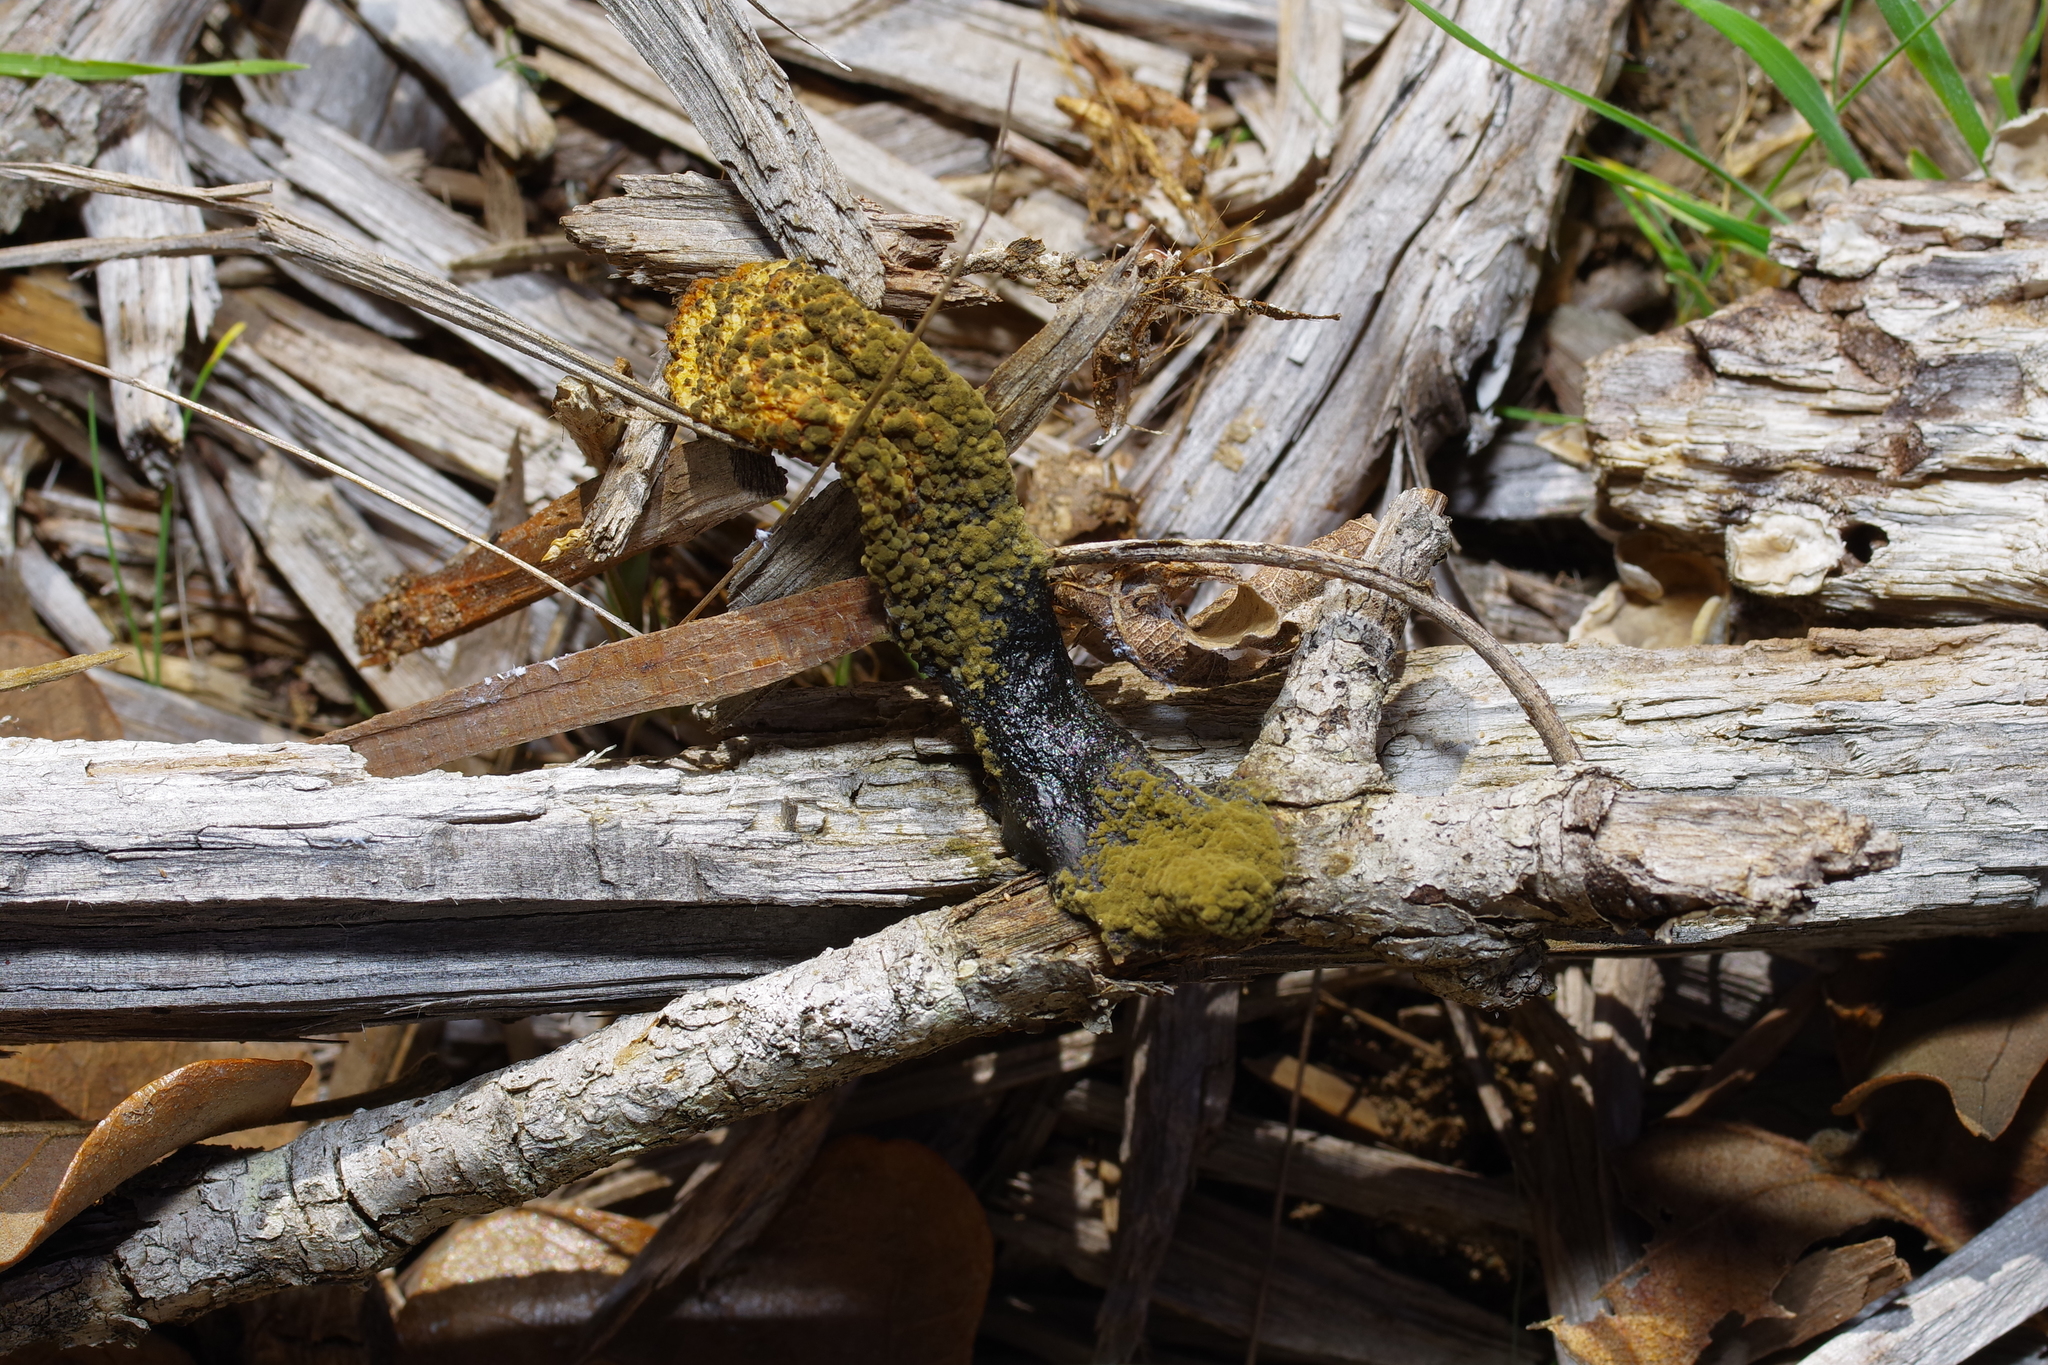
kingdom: Fungi
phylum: Basidiomycota
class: Agaricomycetes
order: Phallales
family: Phallaceae
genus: Phallus
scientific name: Phallus ravenelii
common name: Ravenel's stinkhorn
